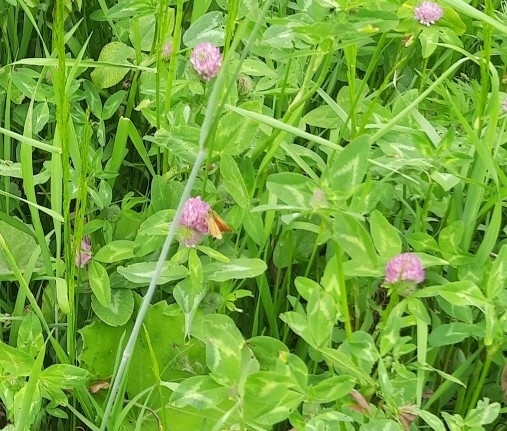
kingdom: Animalia
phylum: Arthropoda
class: Insecta
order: Lepidoptera
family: Hesperiidae
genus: Ochlodes
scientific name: Ochlodes venata
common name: Large skipper
